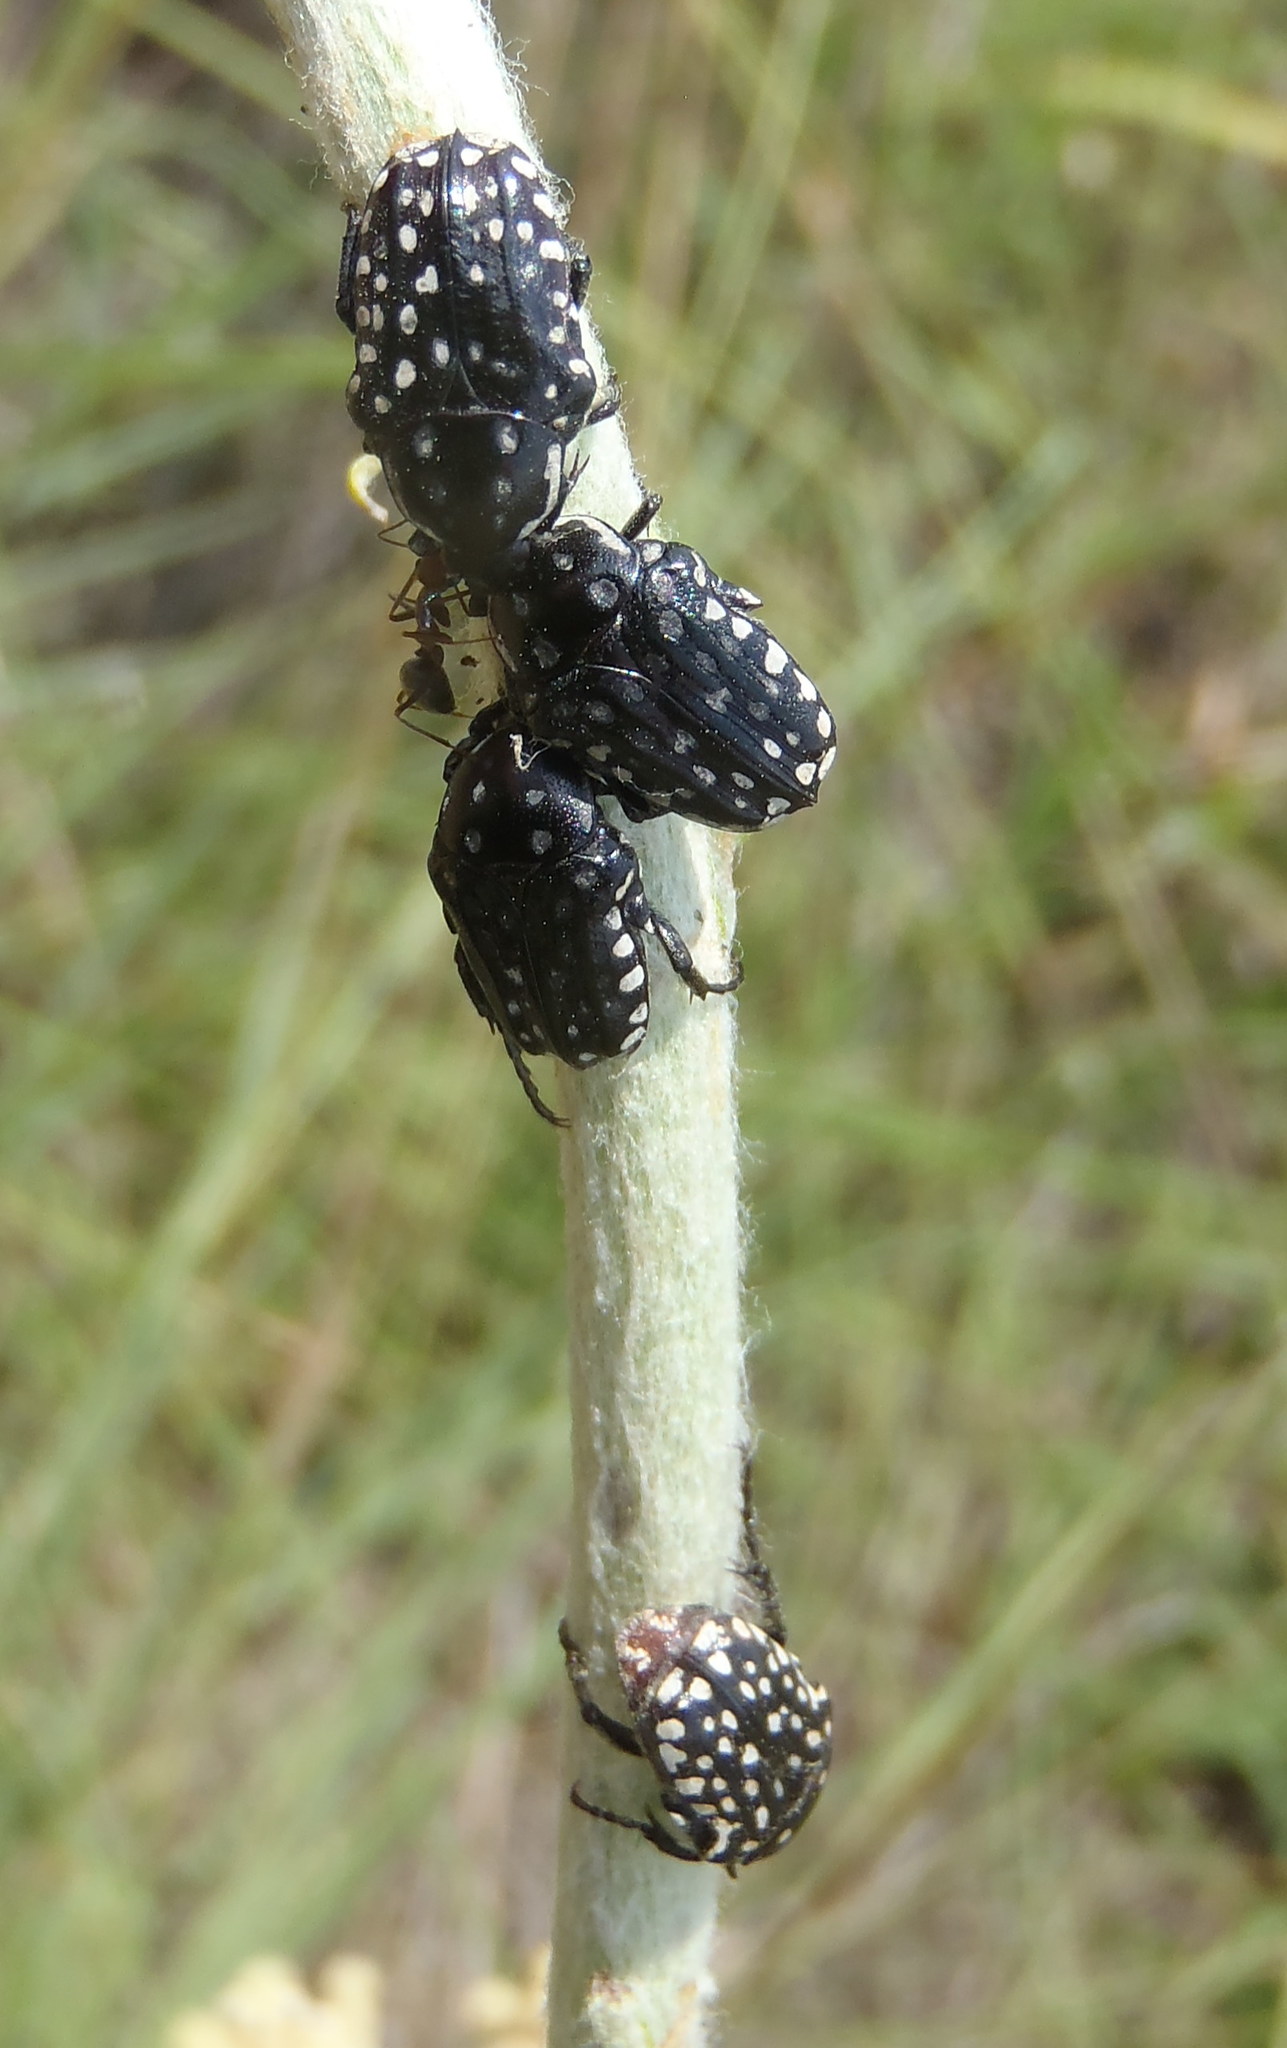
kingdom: Animalia
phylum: Arthropoda
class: Insecta
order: Coleoptera
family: Scarabaeidae
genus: Cyrtothyrea
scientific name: Cyrtothyrea testaceoguttata
